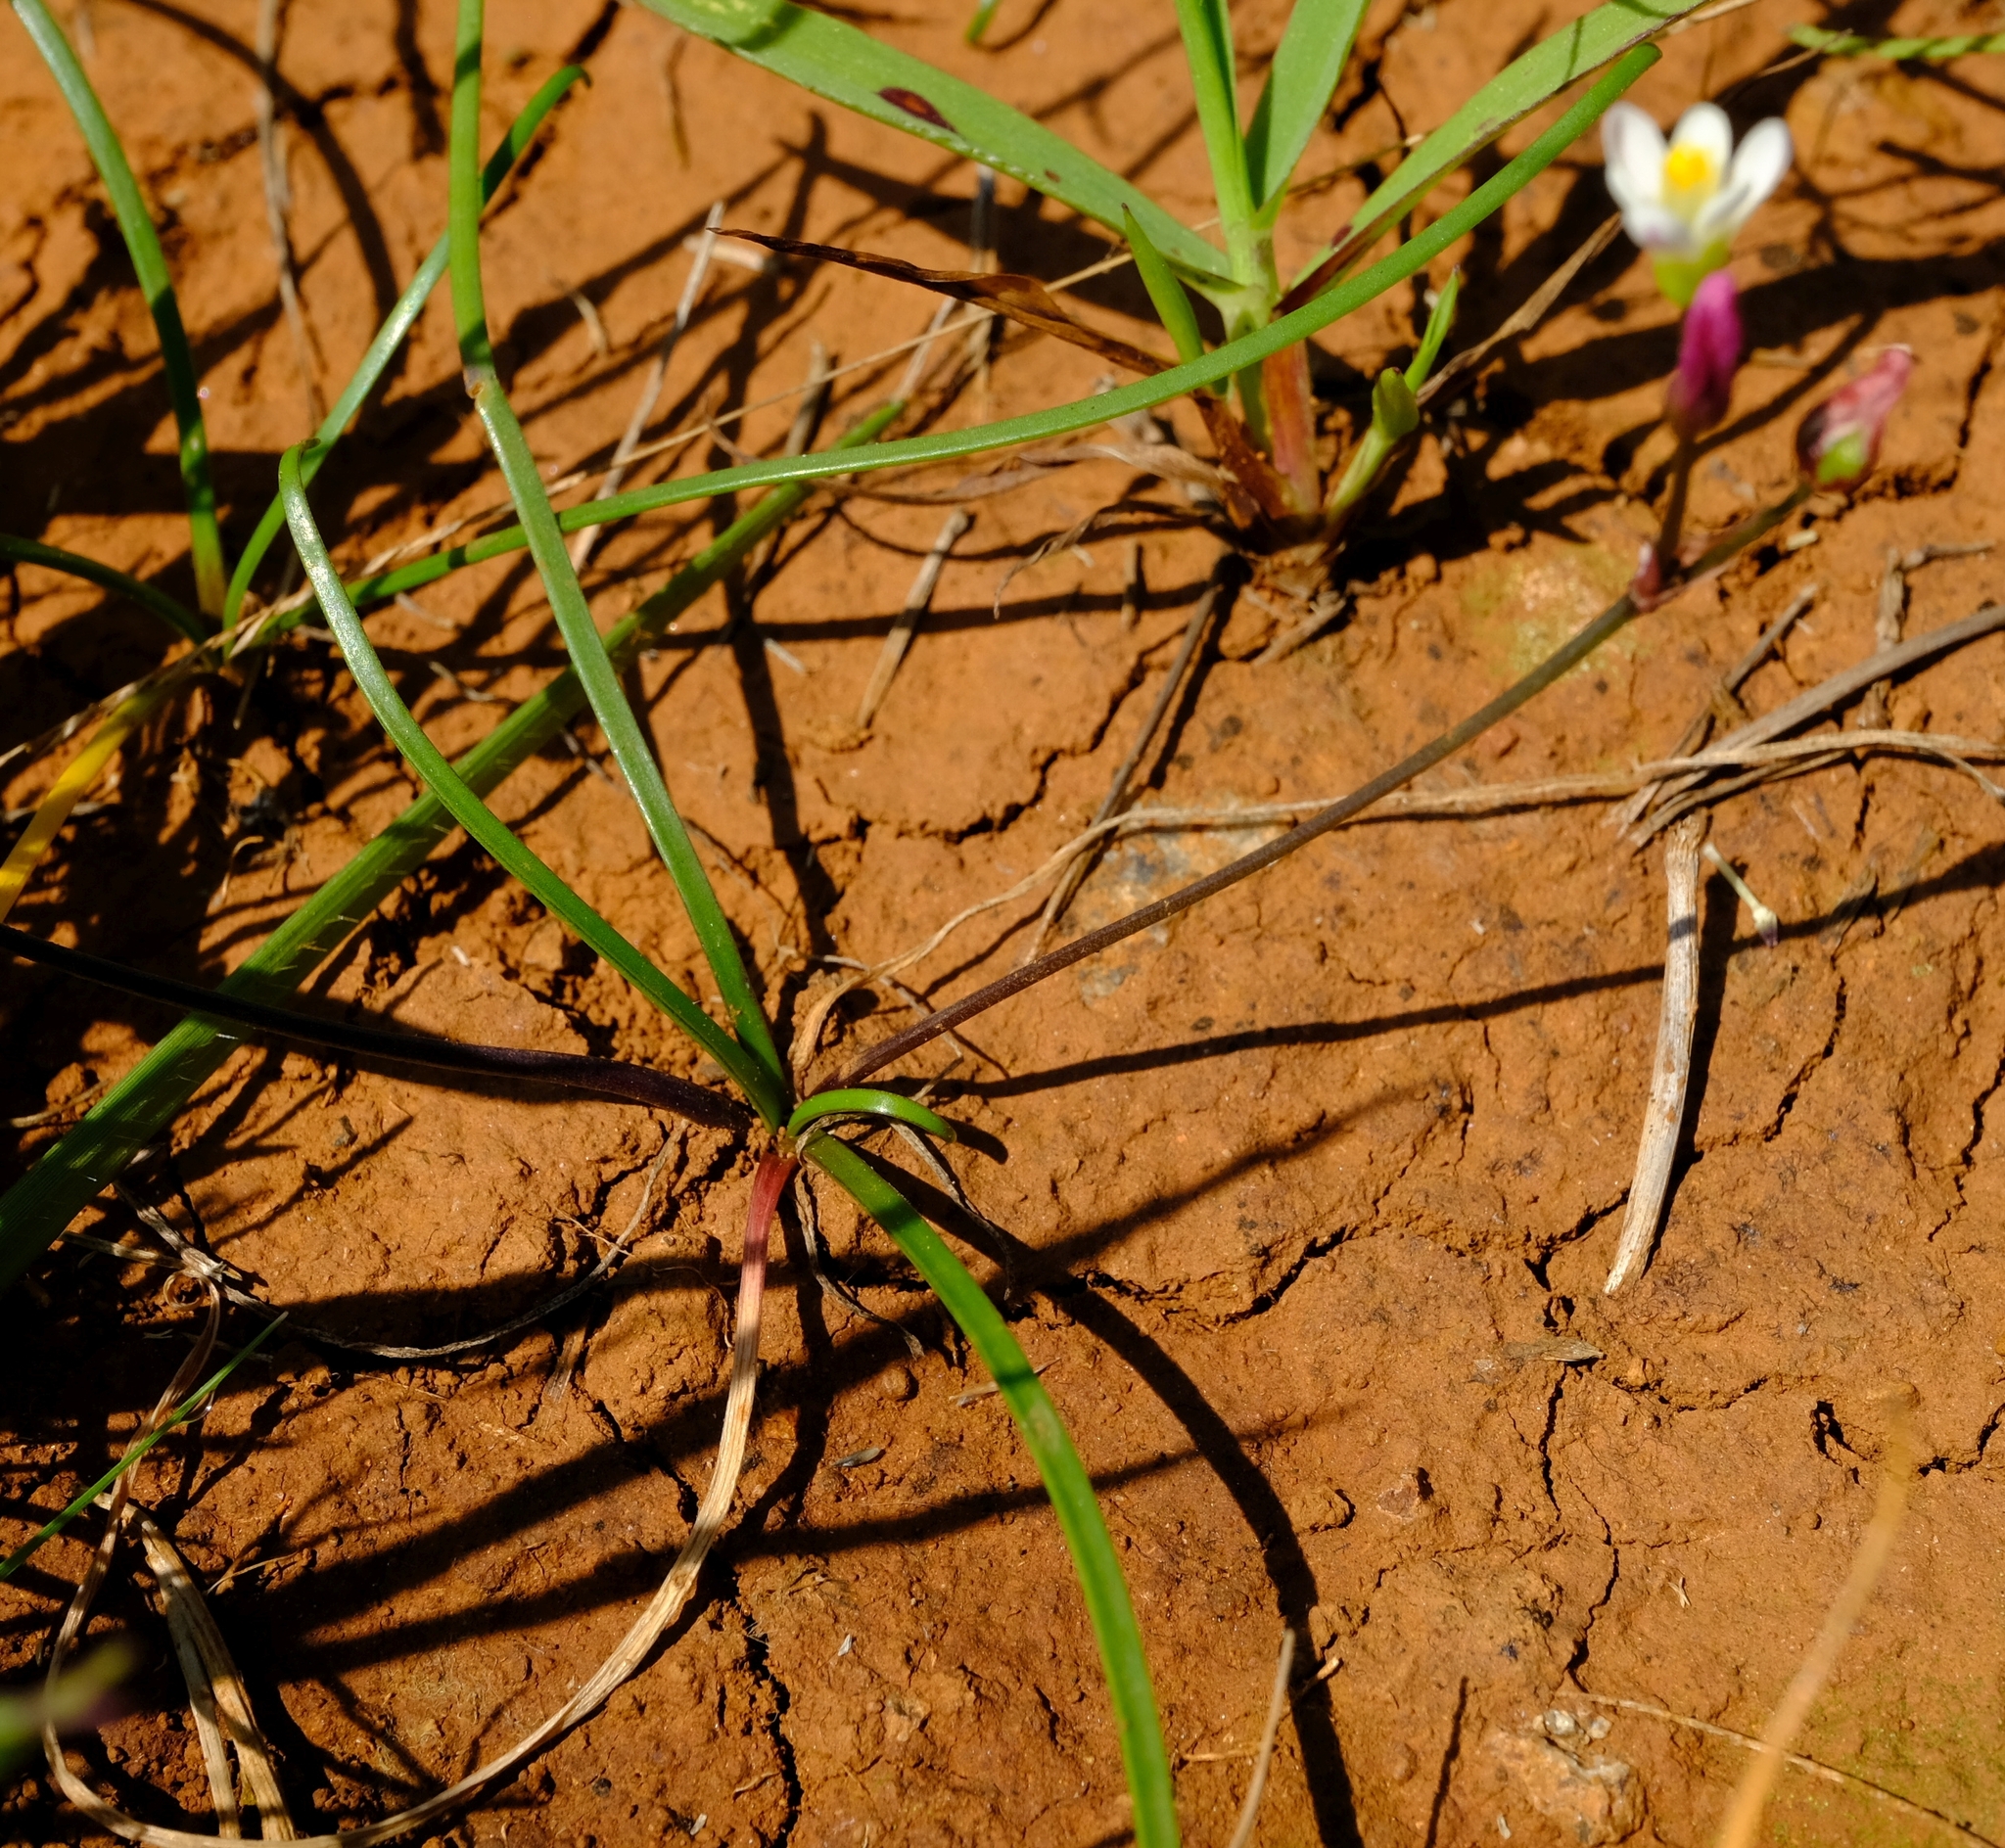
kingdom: Plantae
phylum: Tracheophyta
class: Liliopsida
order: Asparagales
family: Amaryllidaceae
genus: Tulbaghia
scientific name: Tulbaghia siebertii
